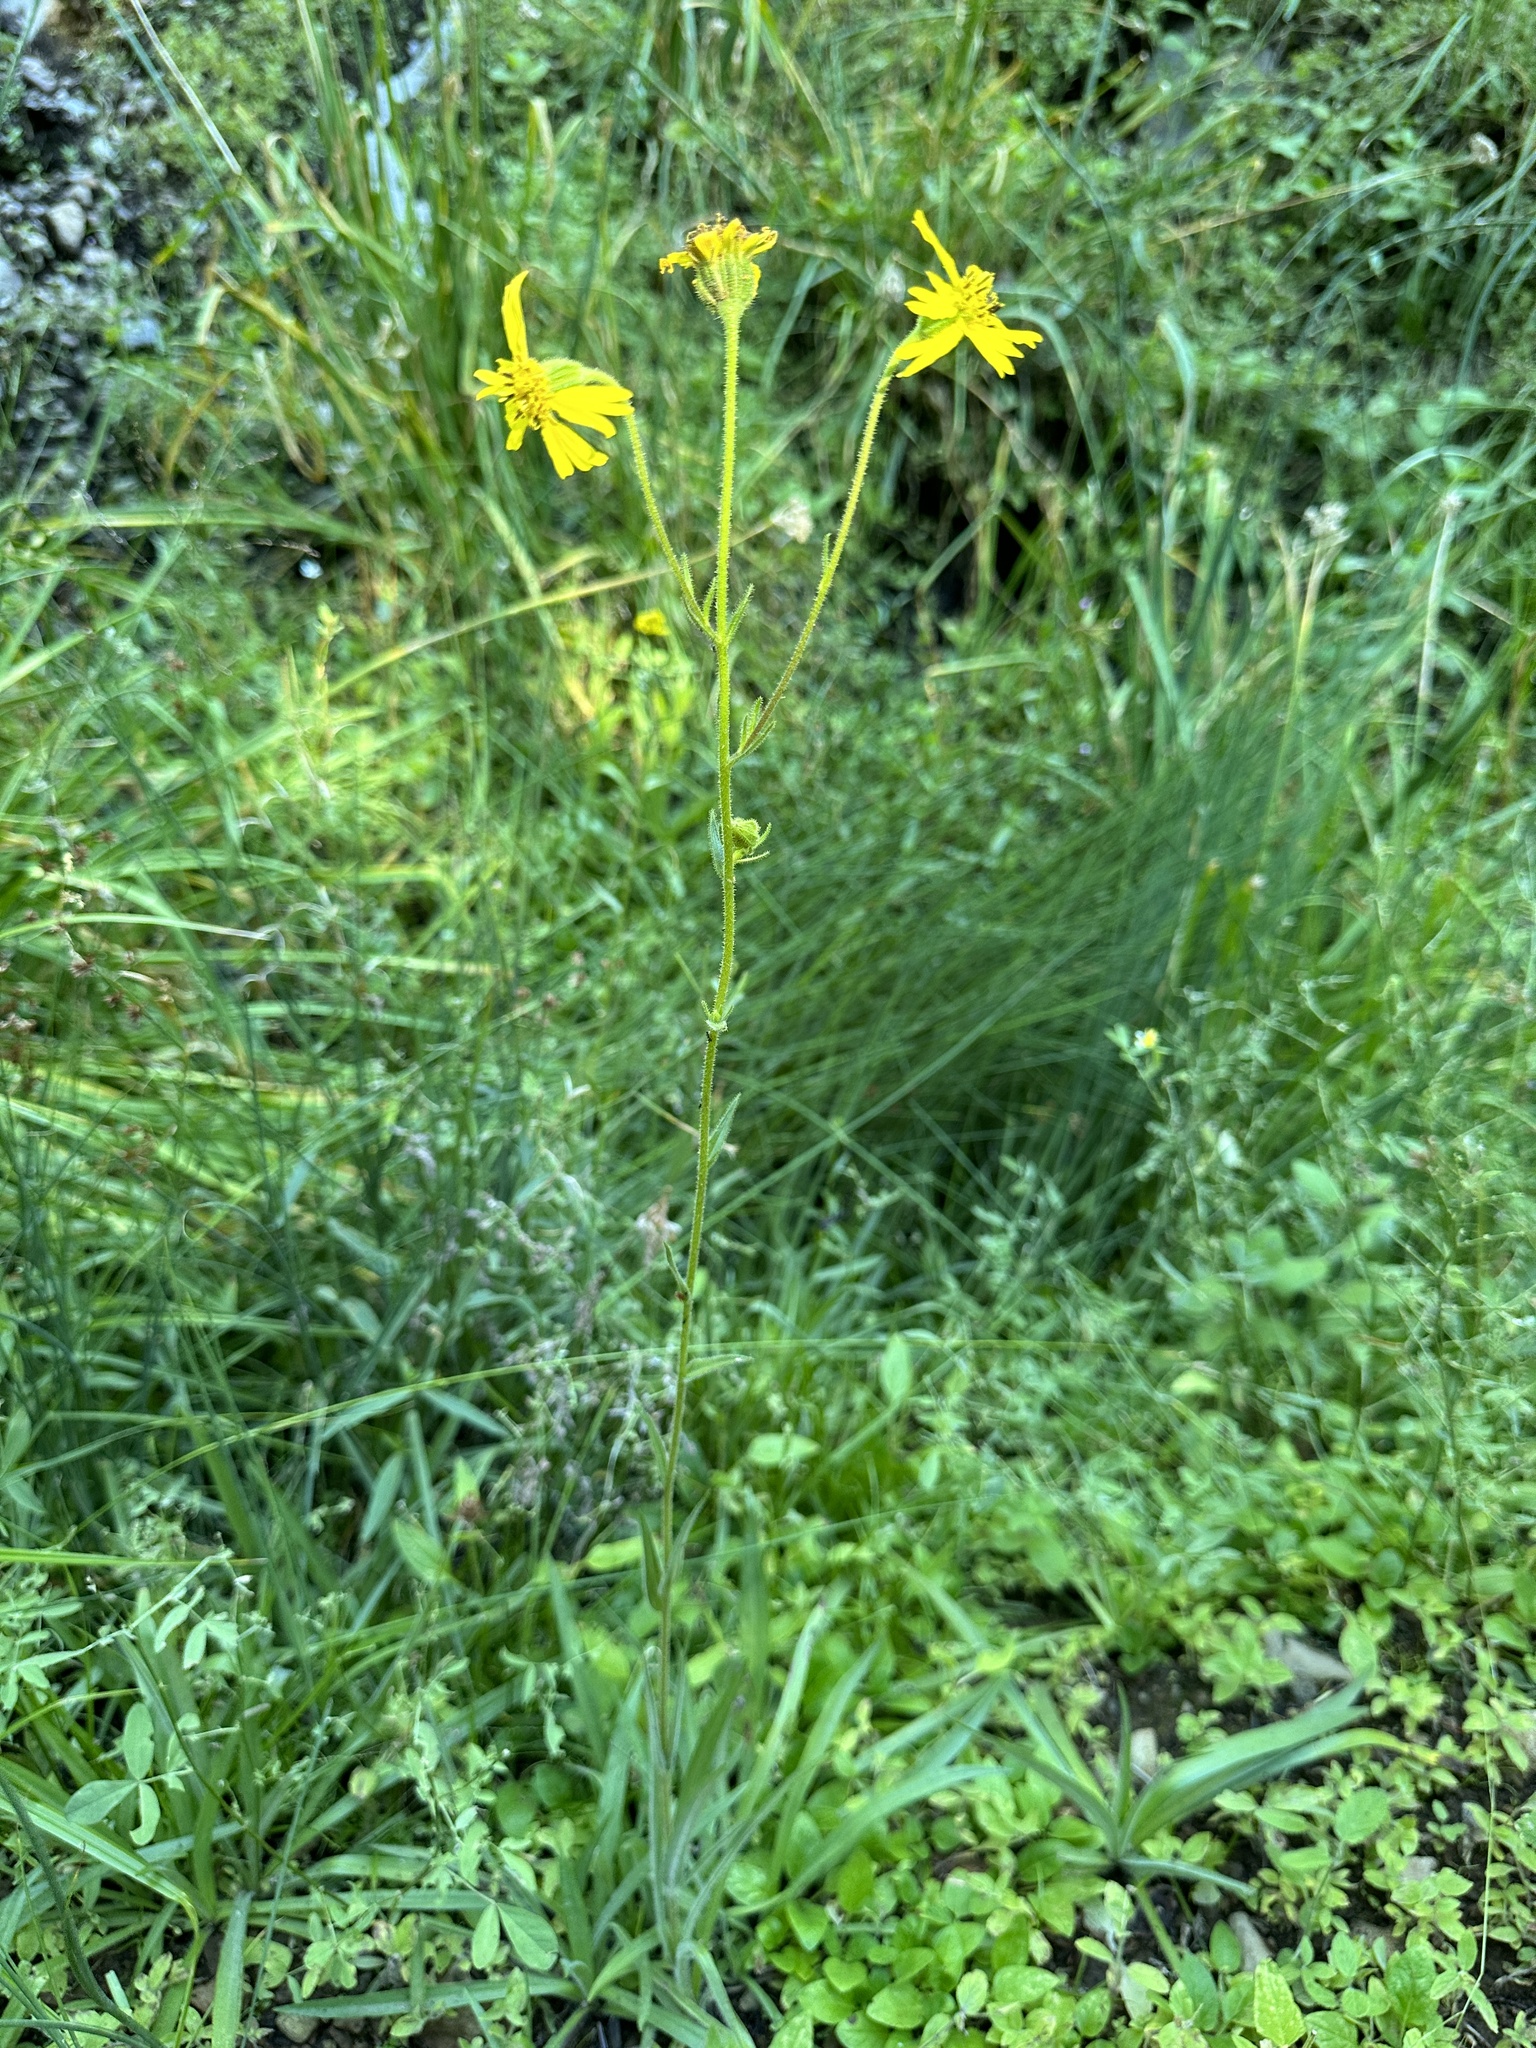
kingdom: Plantae
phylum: Tracheophyta
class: Magnoliopsida
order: Asterales
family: Asteraceae
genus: Kyhosia
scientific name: Kyhosia bolanderi
